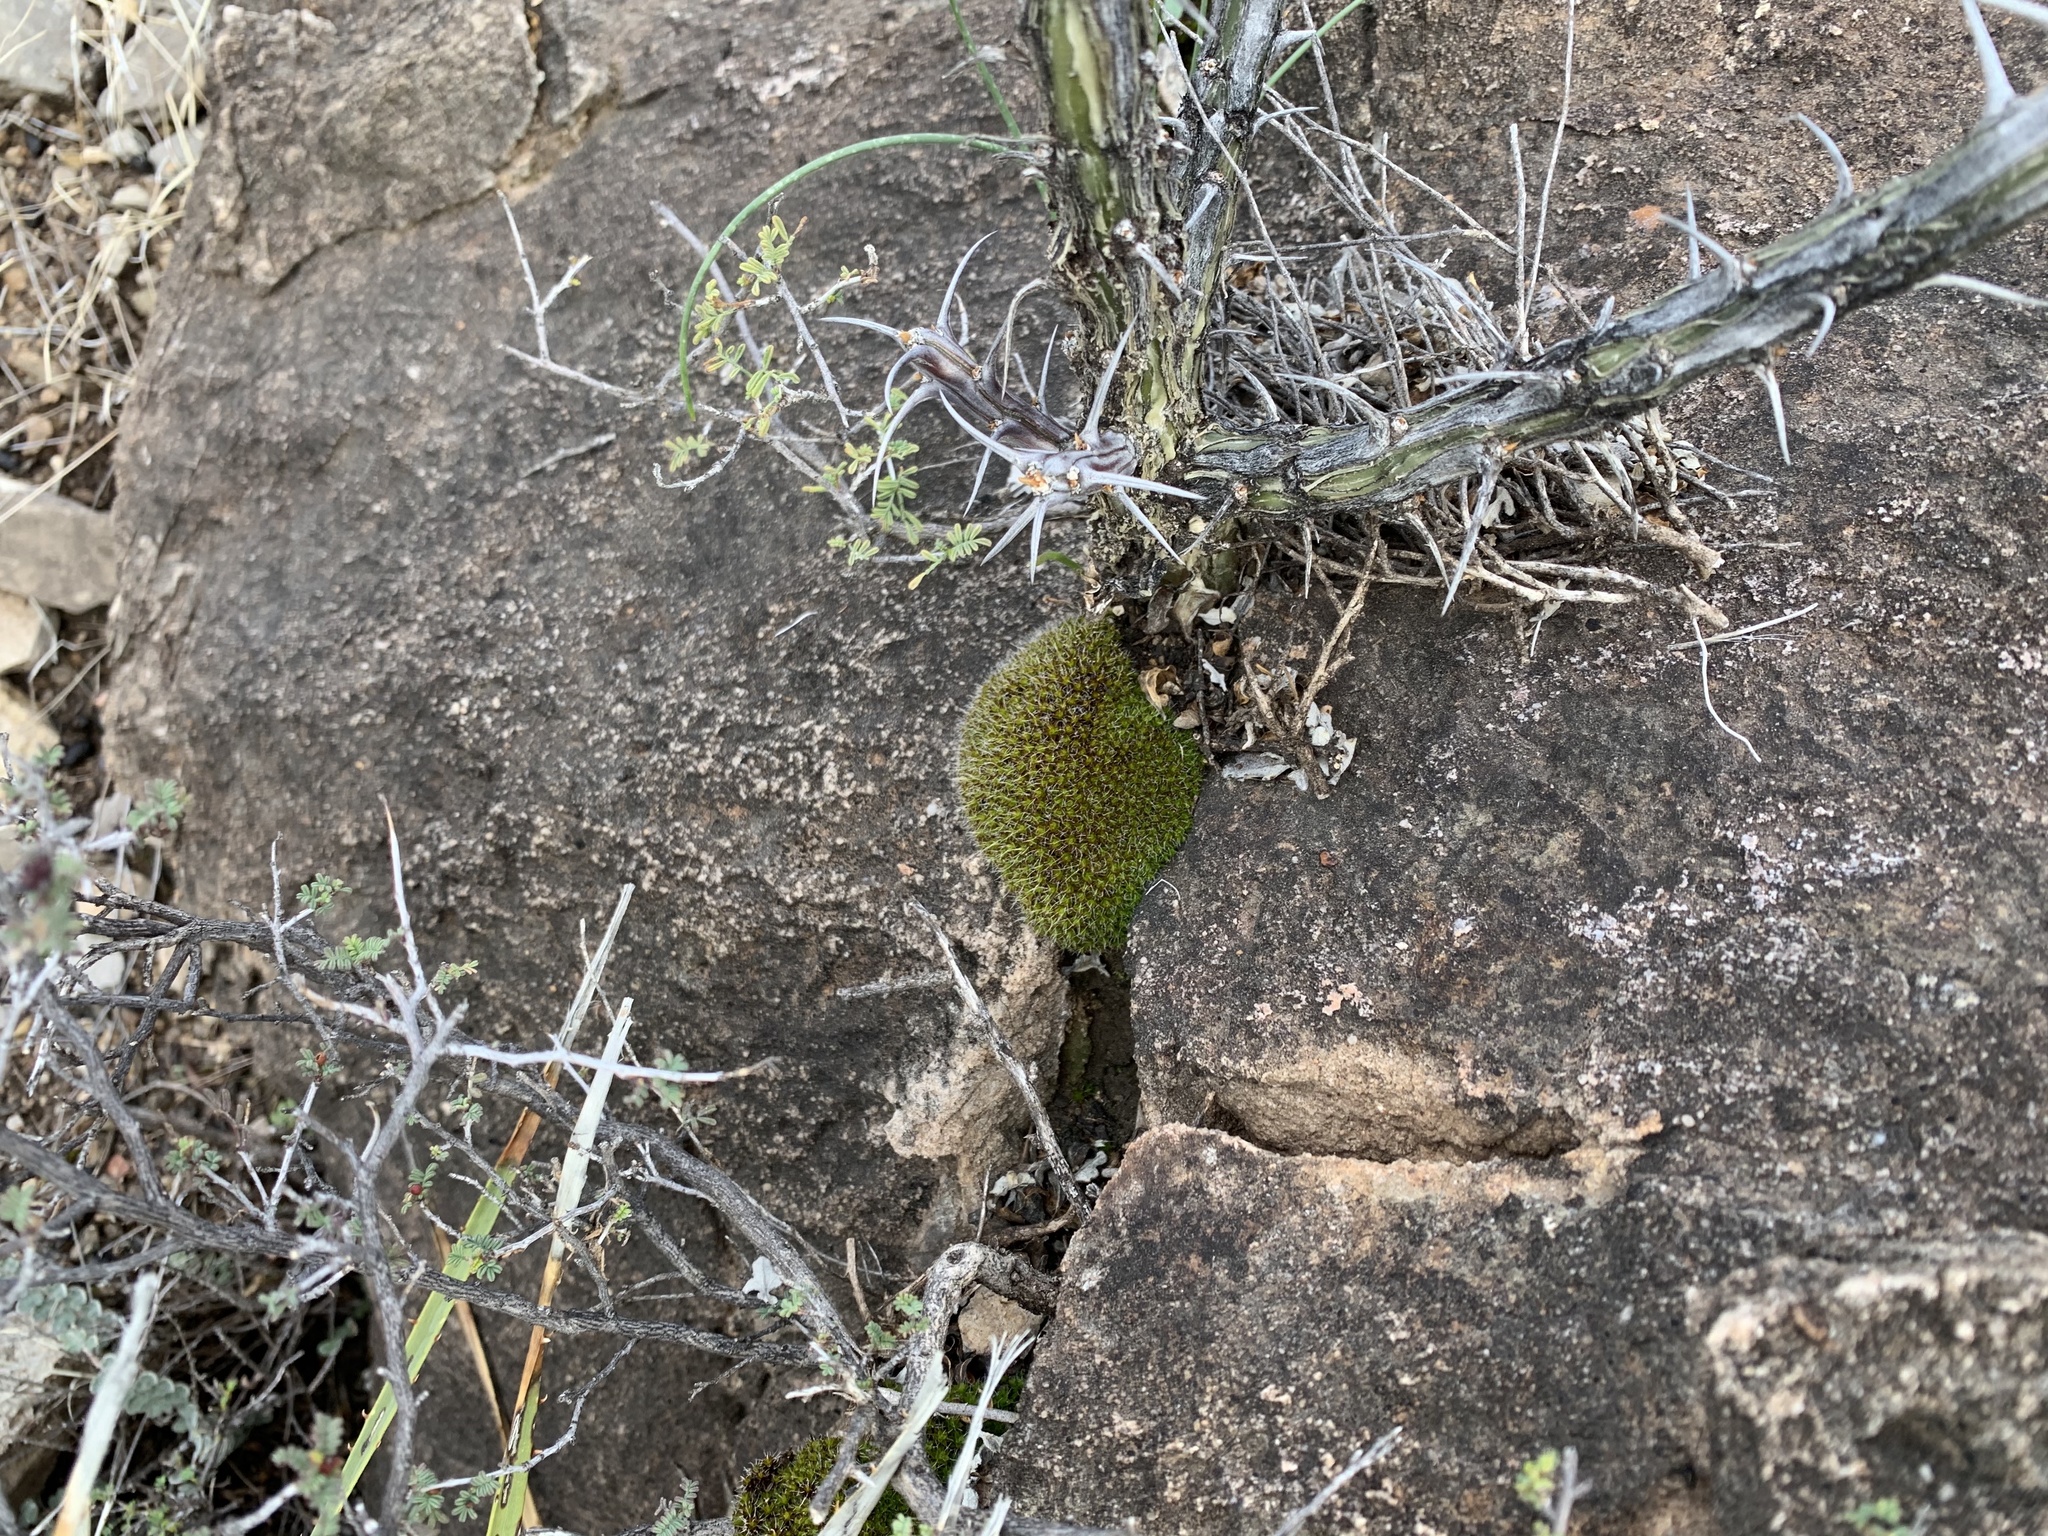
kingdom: Plantae
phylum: Bryophyta
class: Bryopsida
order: Pottiales
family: Pottiaceae
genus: Syntrichia
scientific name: Syntrichia ruralis
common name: Sidewalk screw moss
